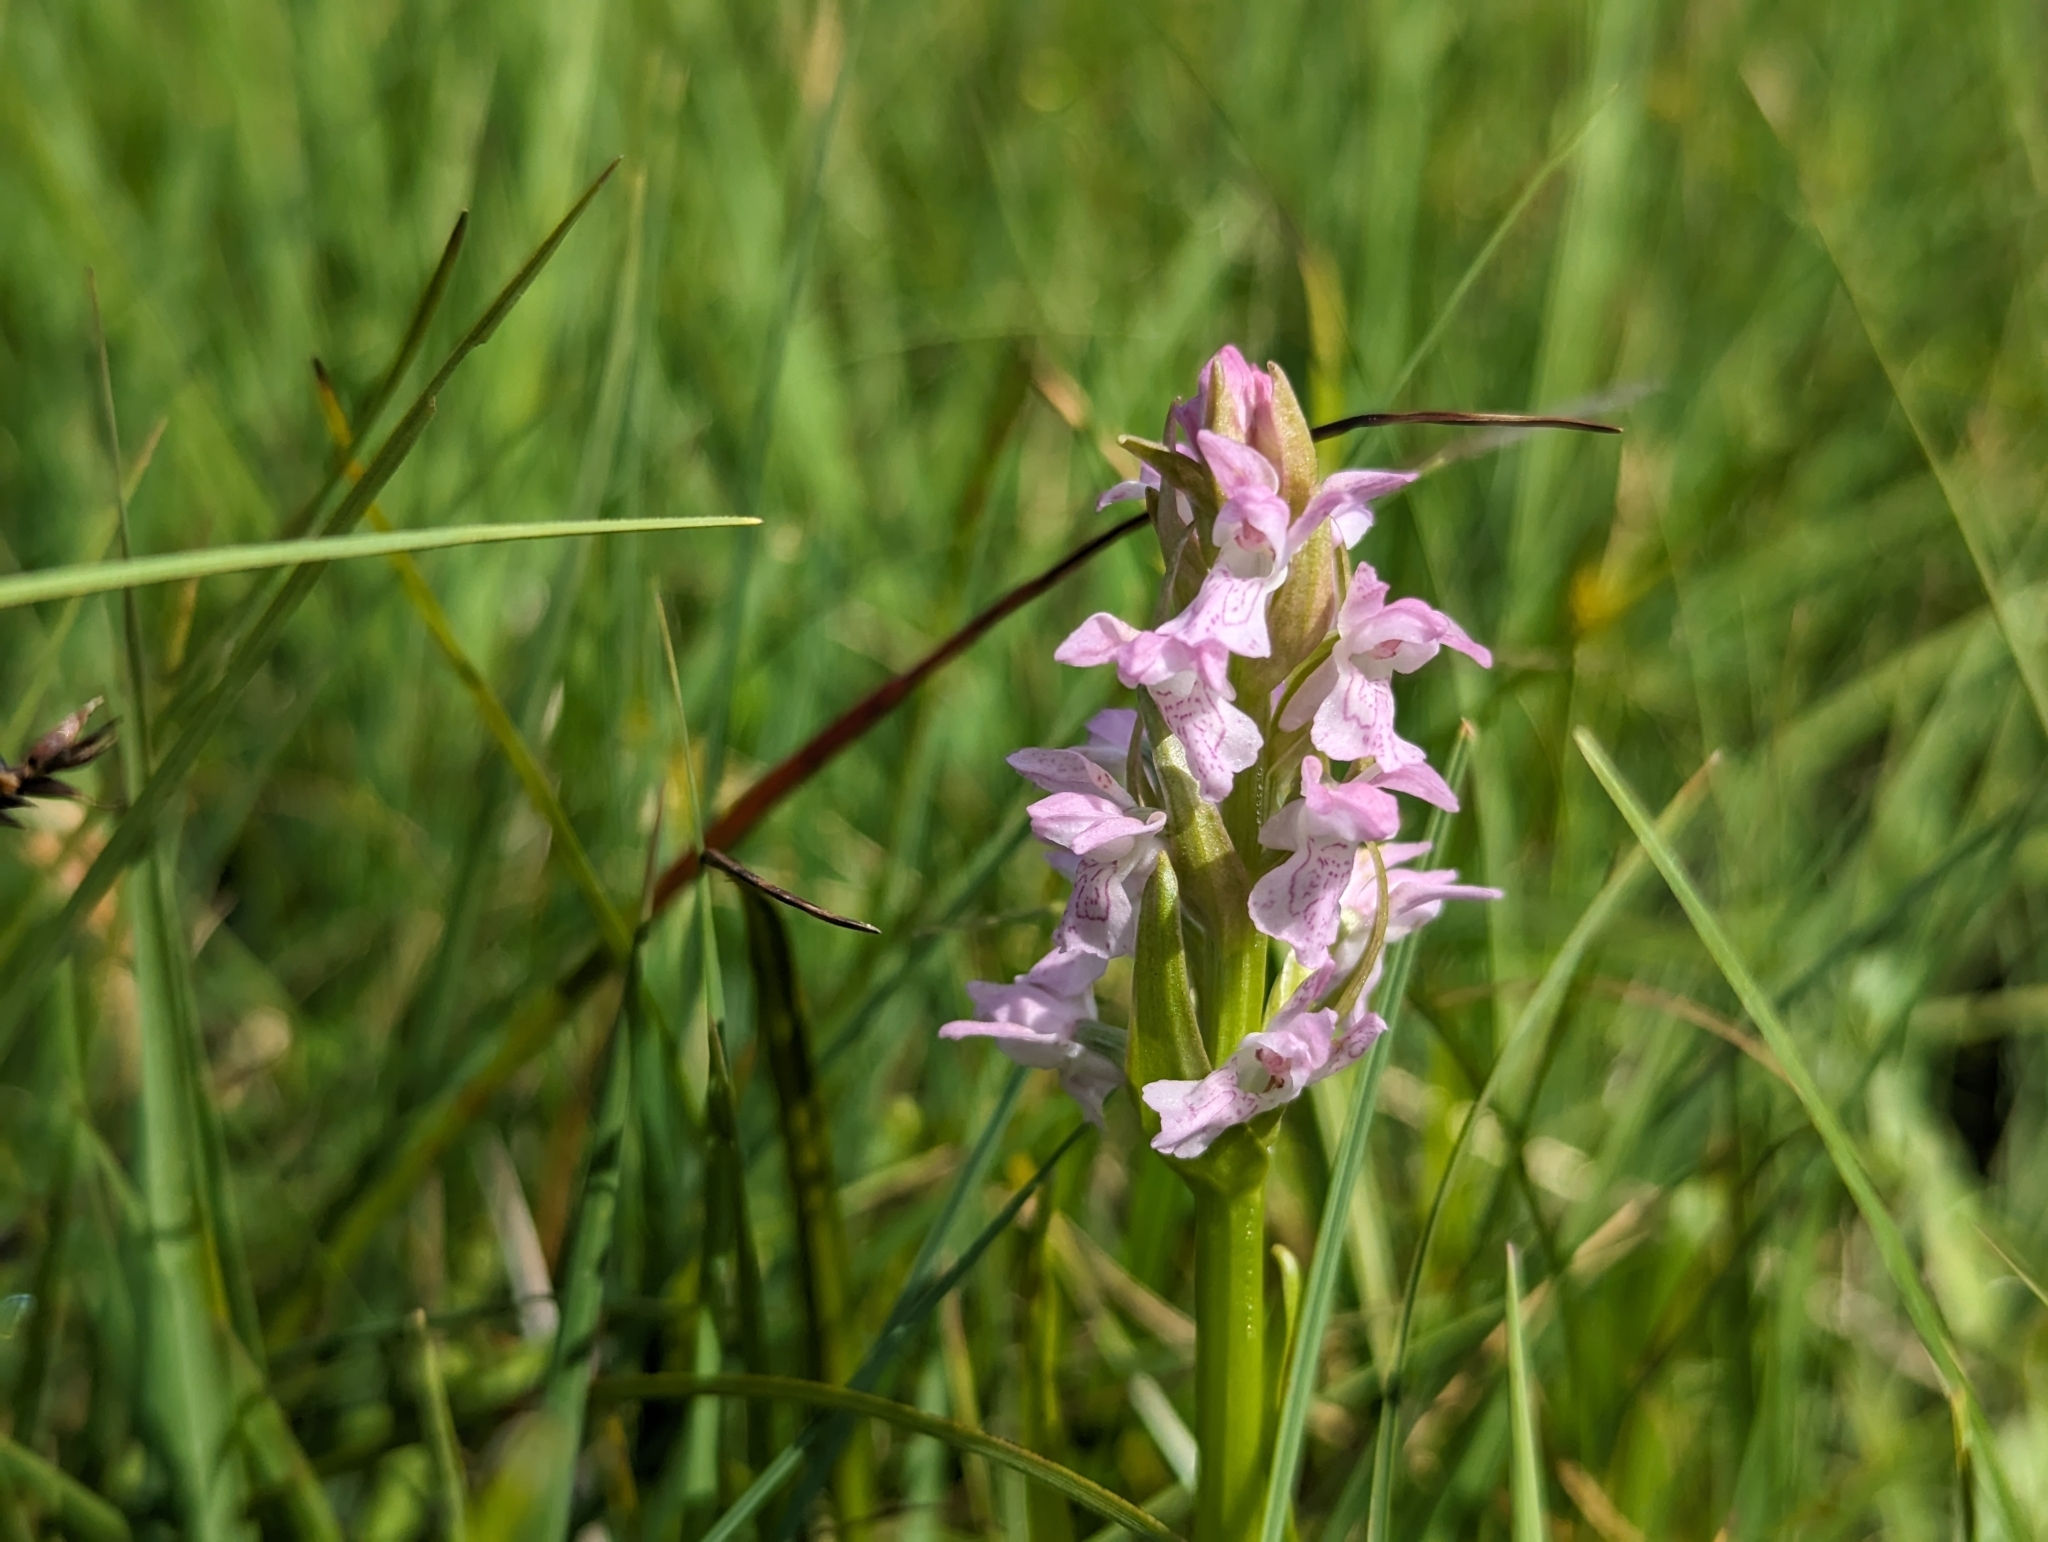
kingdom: Plantae
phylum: Tracheophyta
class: Liliopsida
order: Asparagales
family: Orchidaceae
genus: Dactylorhiza
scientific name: Dactylorhiza incarnata
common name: Early marsh-orchid
